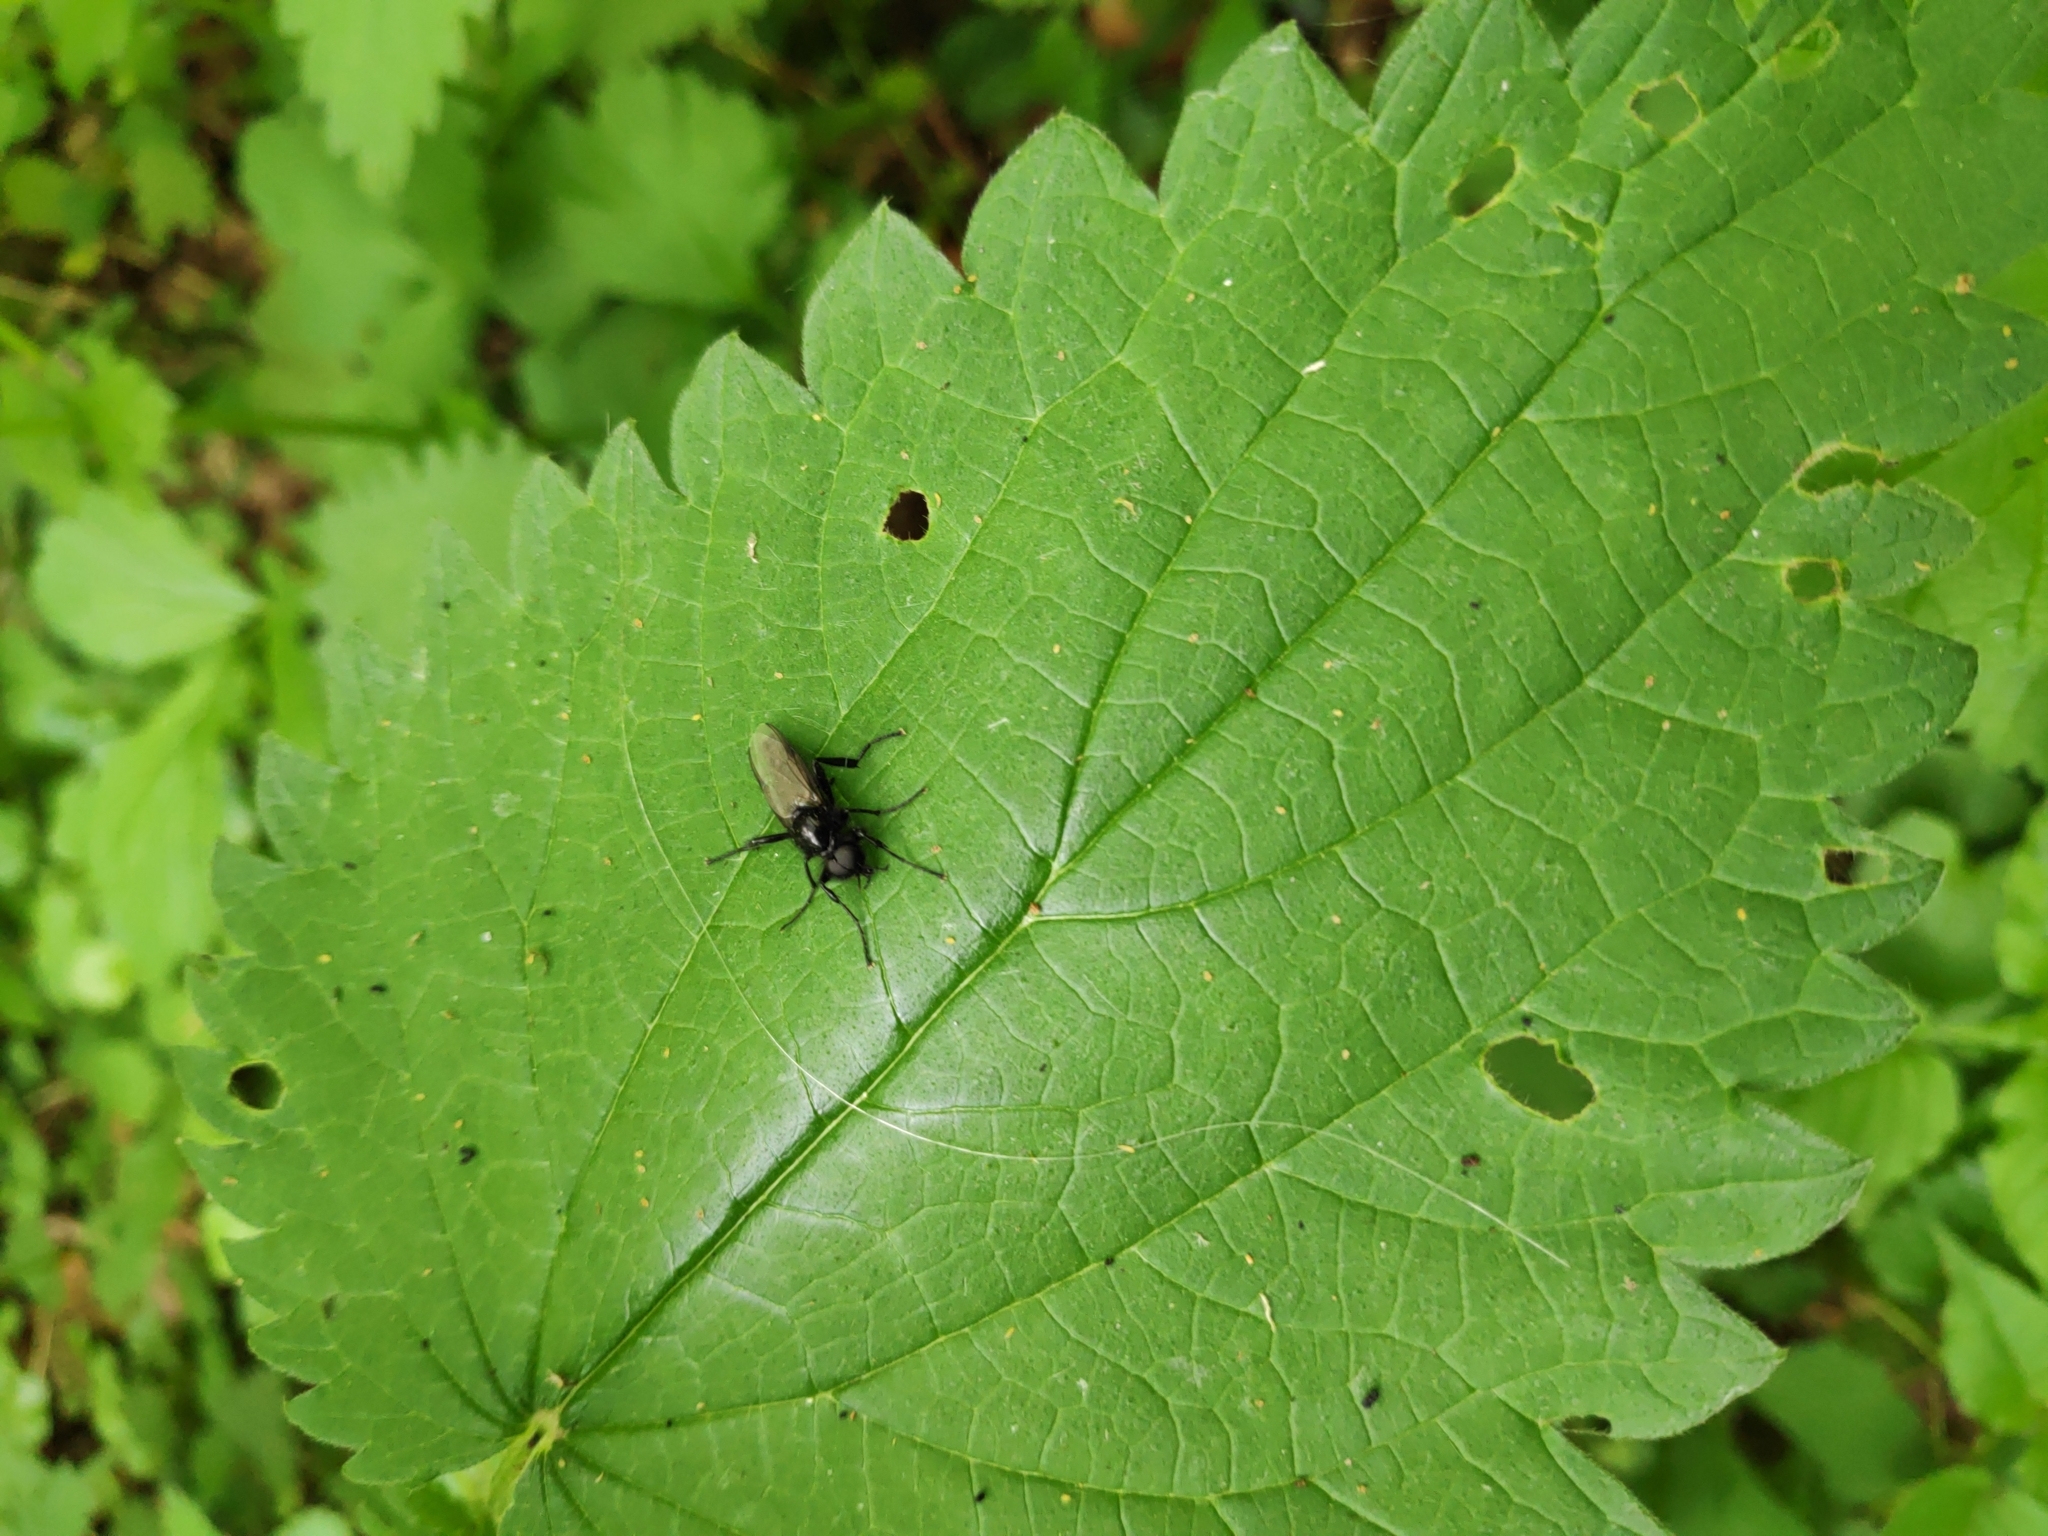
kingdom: Animalia
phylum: Arthropoda
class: Insecta
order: Diptera
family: Bibionidae
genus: Bibio
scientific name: Bibio marci
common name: St marks fly
